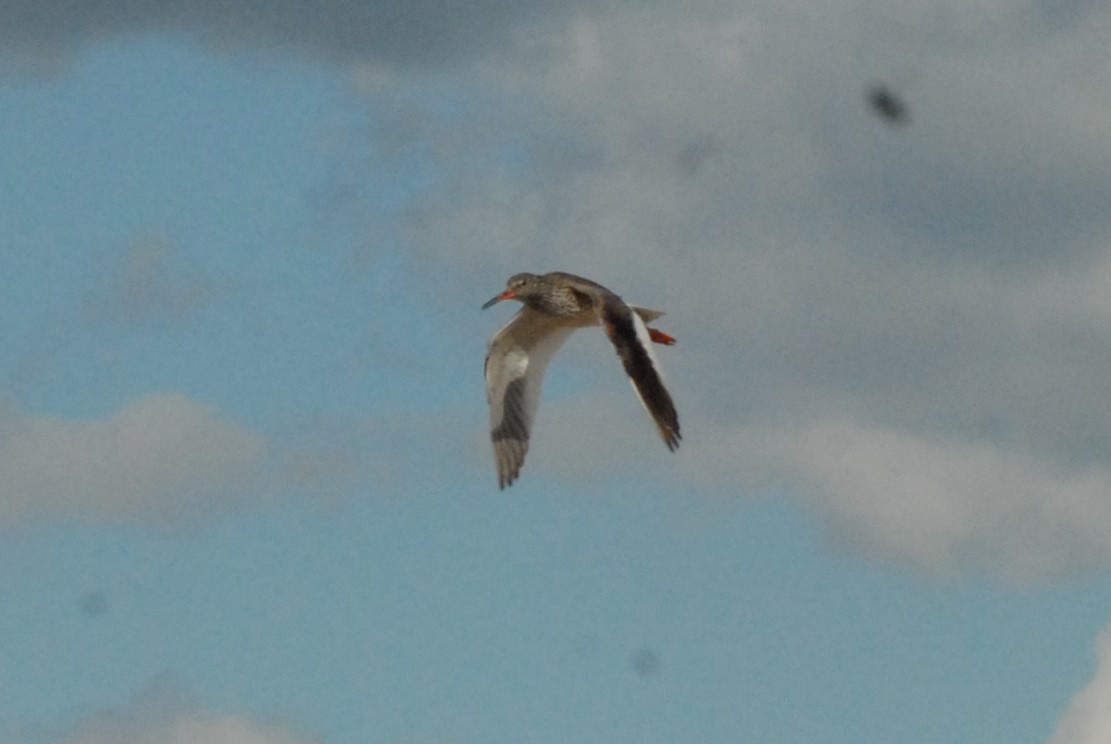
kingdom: Animalia
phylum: Chordata
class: Aves
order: Charadriiformes
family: Scolopacidae
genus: Tringa
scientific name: Tringa totanus
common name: Common redshank
